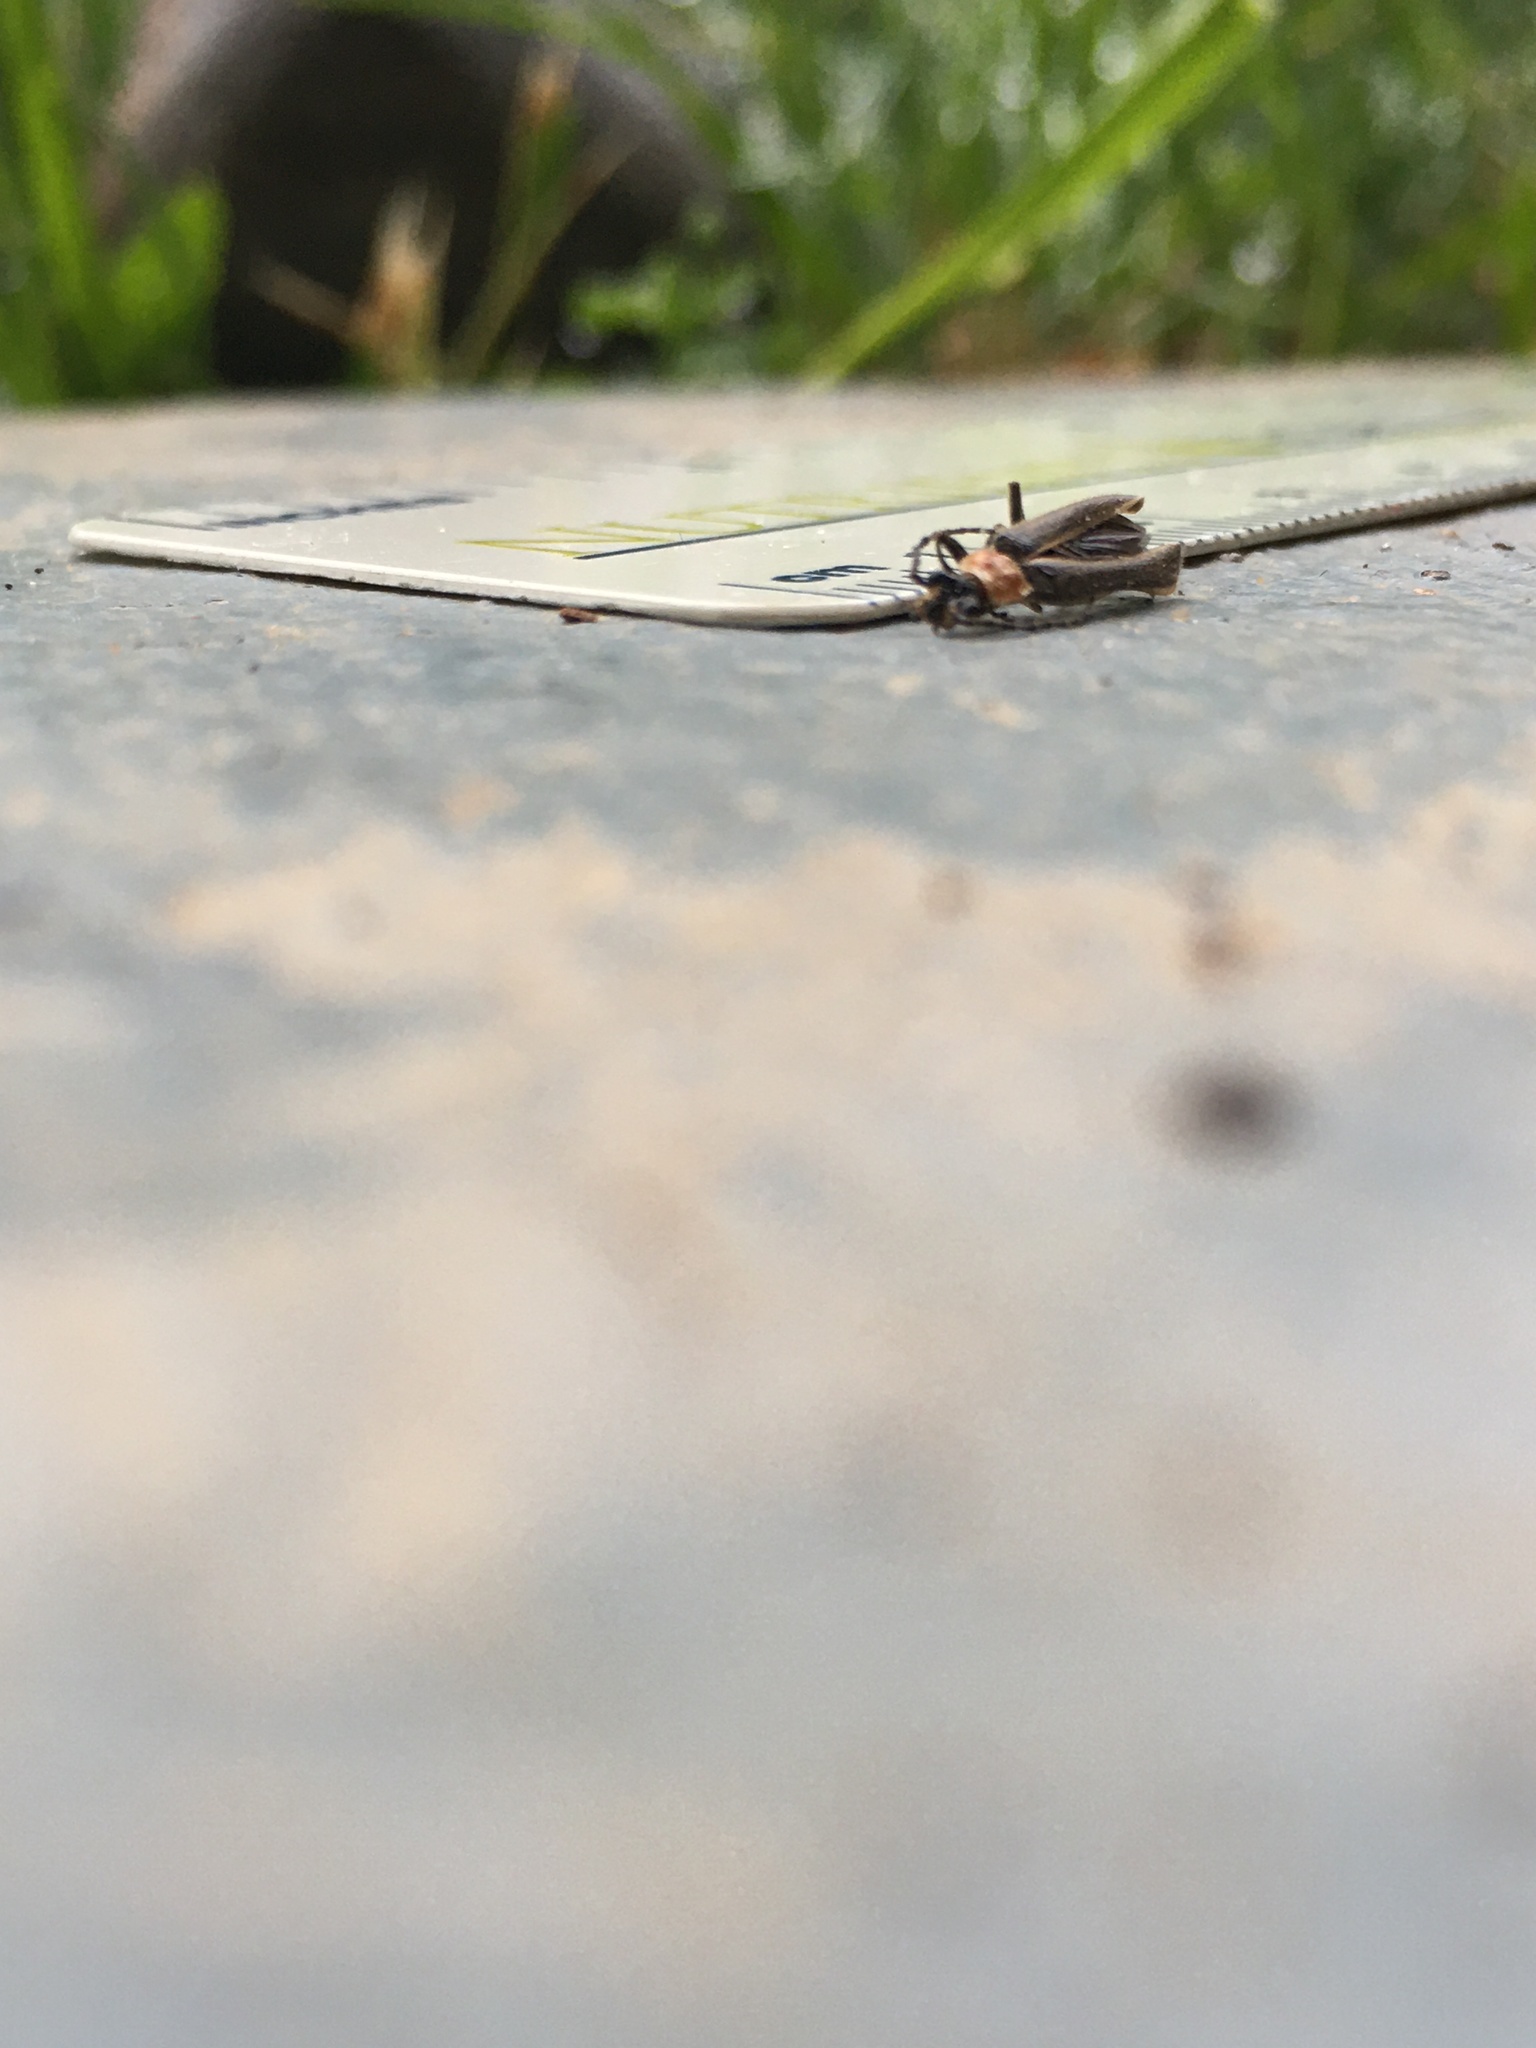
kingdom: Animalia
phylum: Arthropoda
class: Insecta
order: Coleoptera
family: Cantharidae
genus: Podabrus
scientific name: Podabrus flavicollis
